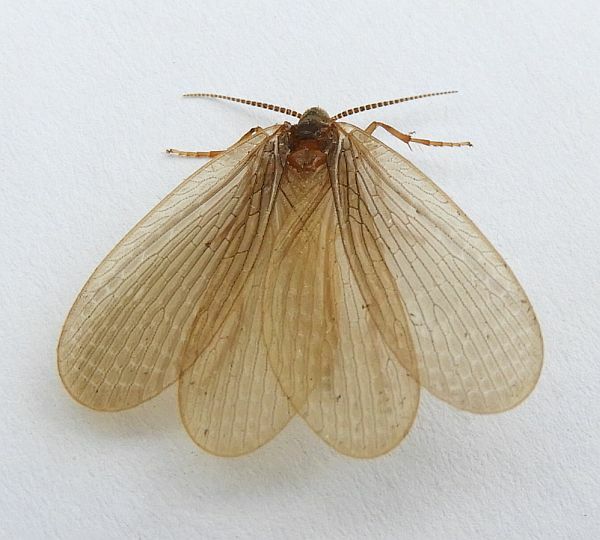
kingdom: Animalia
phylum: Arthropoda
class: Insecta
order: Mecoptera
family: Meropeidae
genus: Merope
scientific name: Merope tuber
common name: Forcepfly
